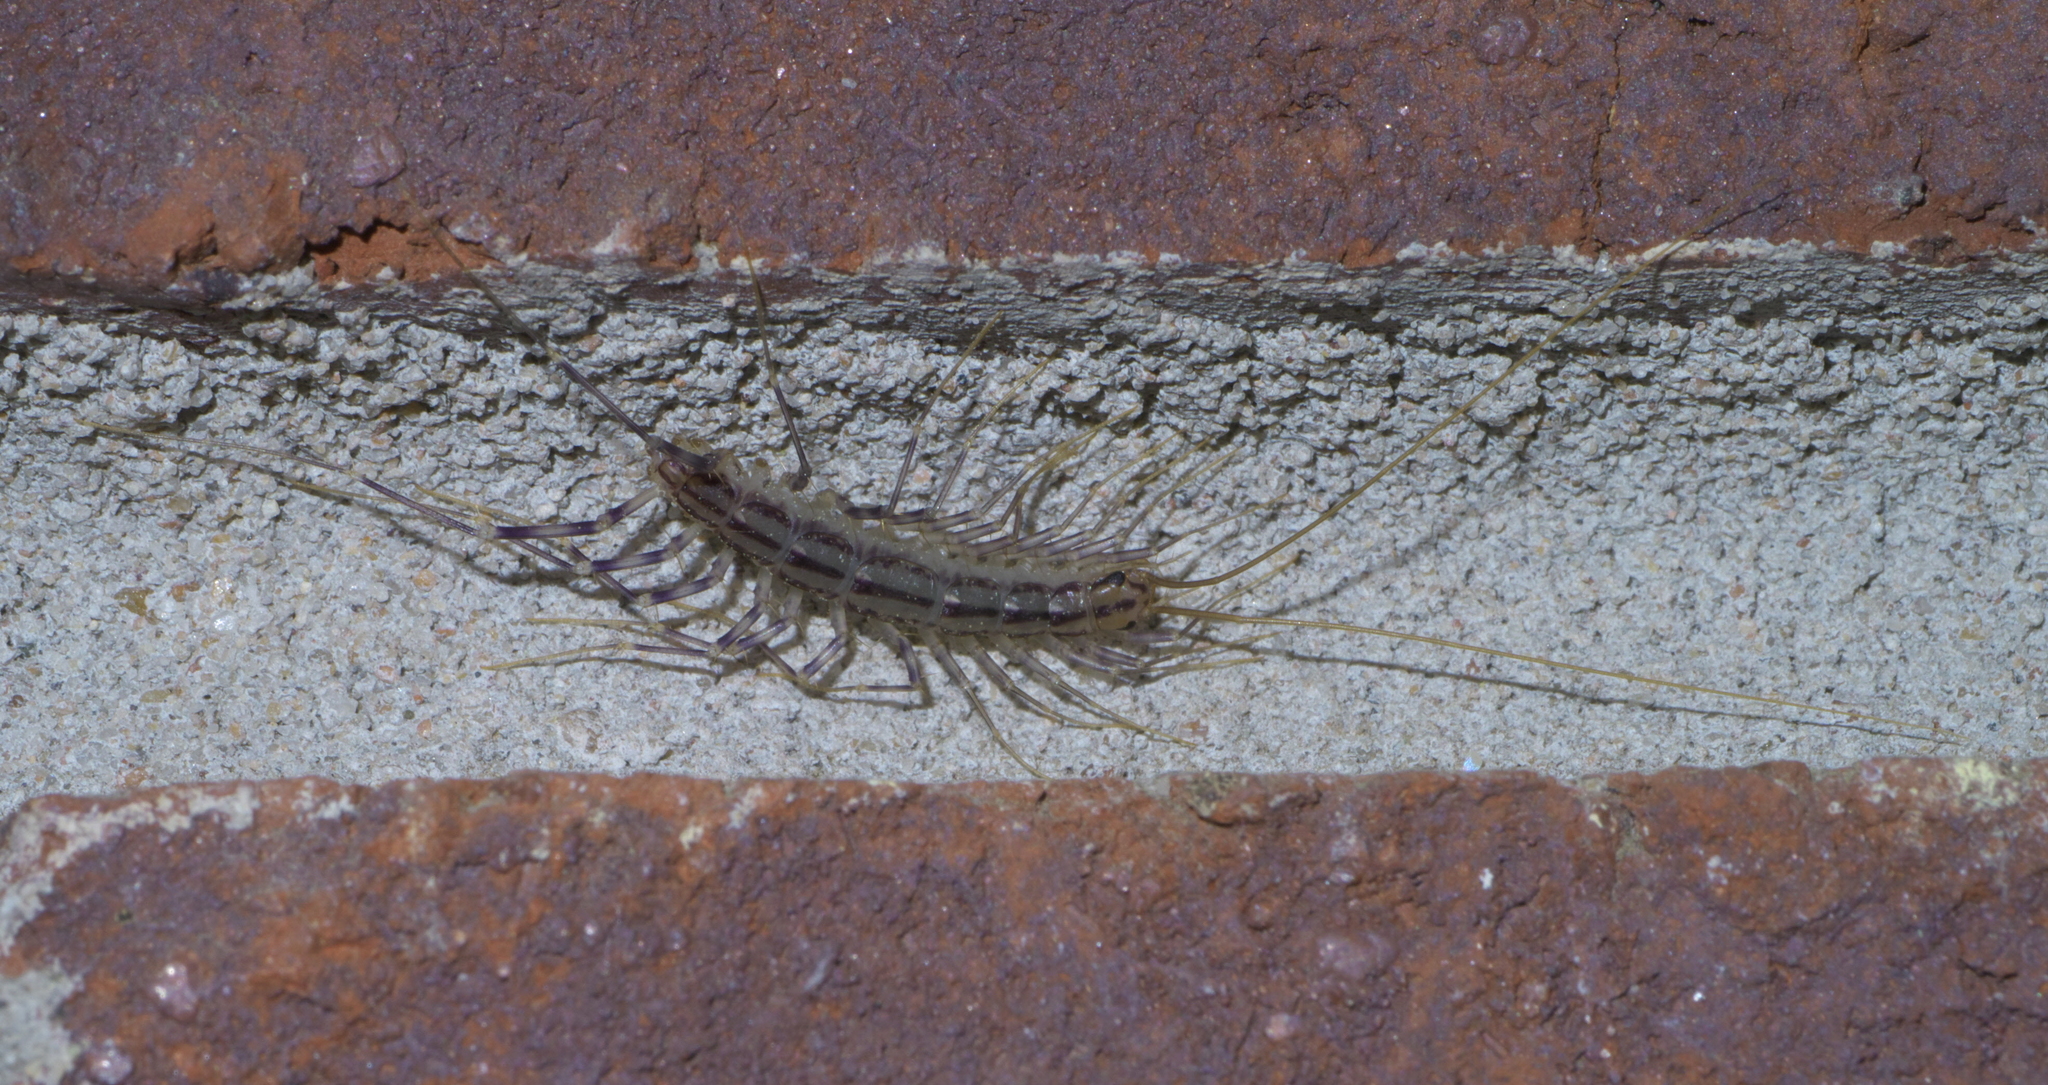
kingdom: Animalia
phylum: Arthropoda
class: Chilopoda
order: Scutigeromorpha
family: Scutigeridae
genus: Scutigera
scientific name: Scutigera coleoptrata
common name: House centipede
